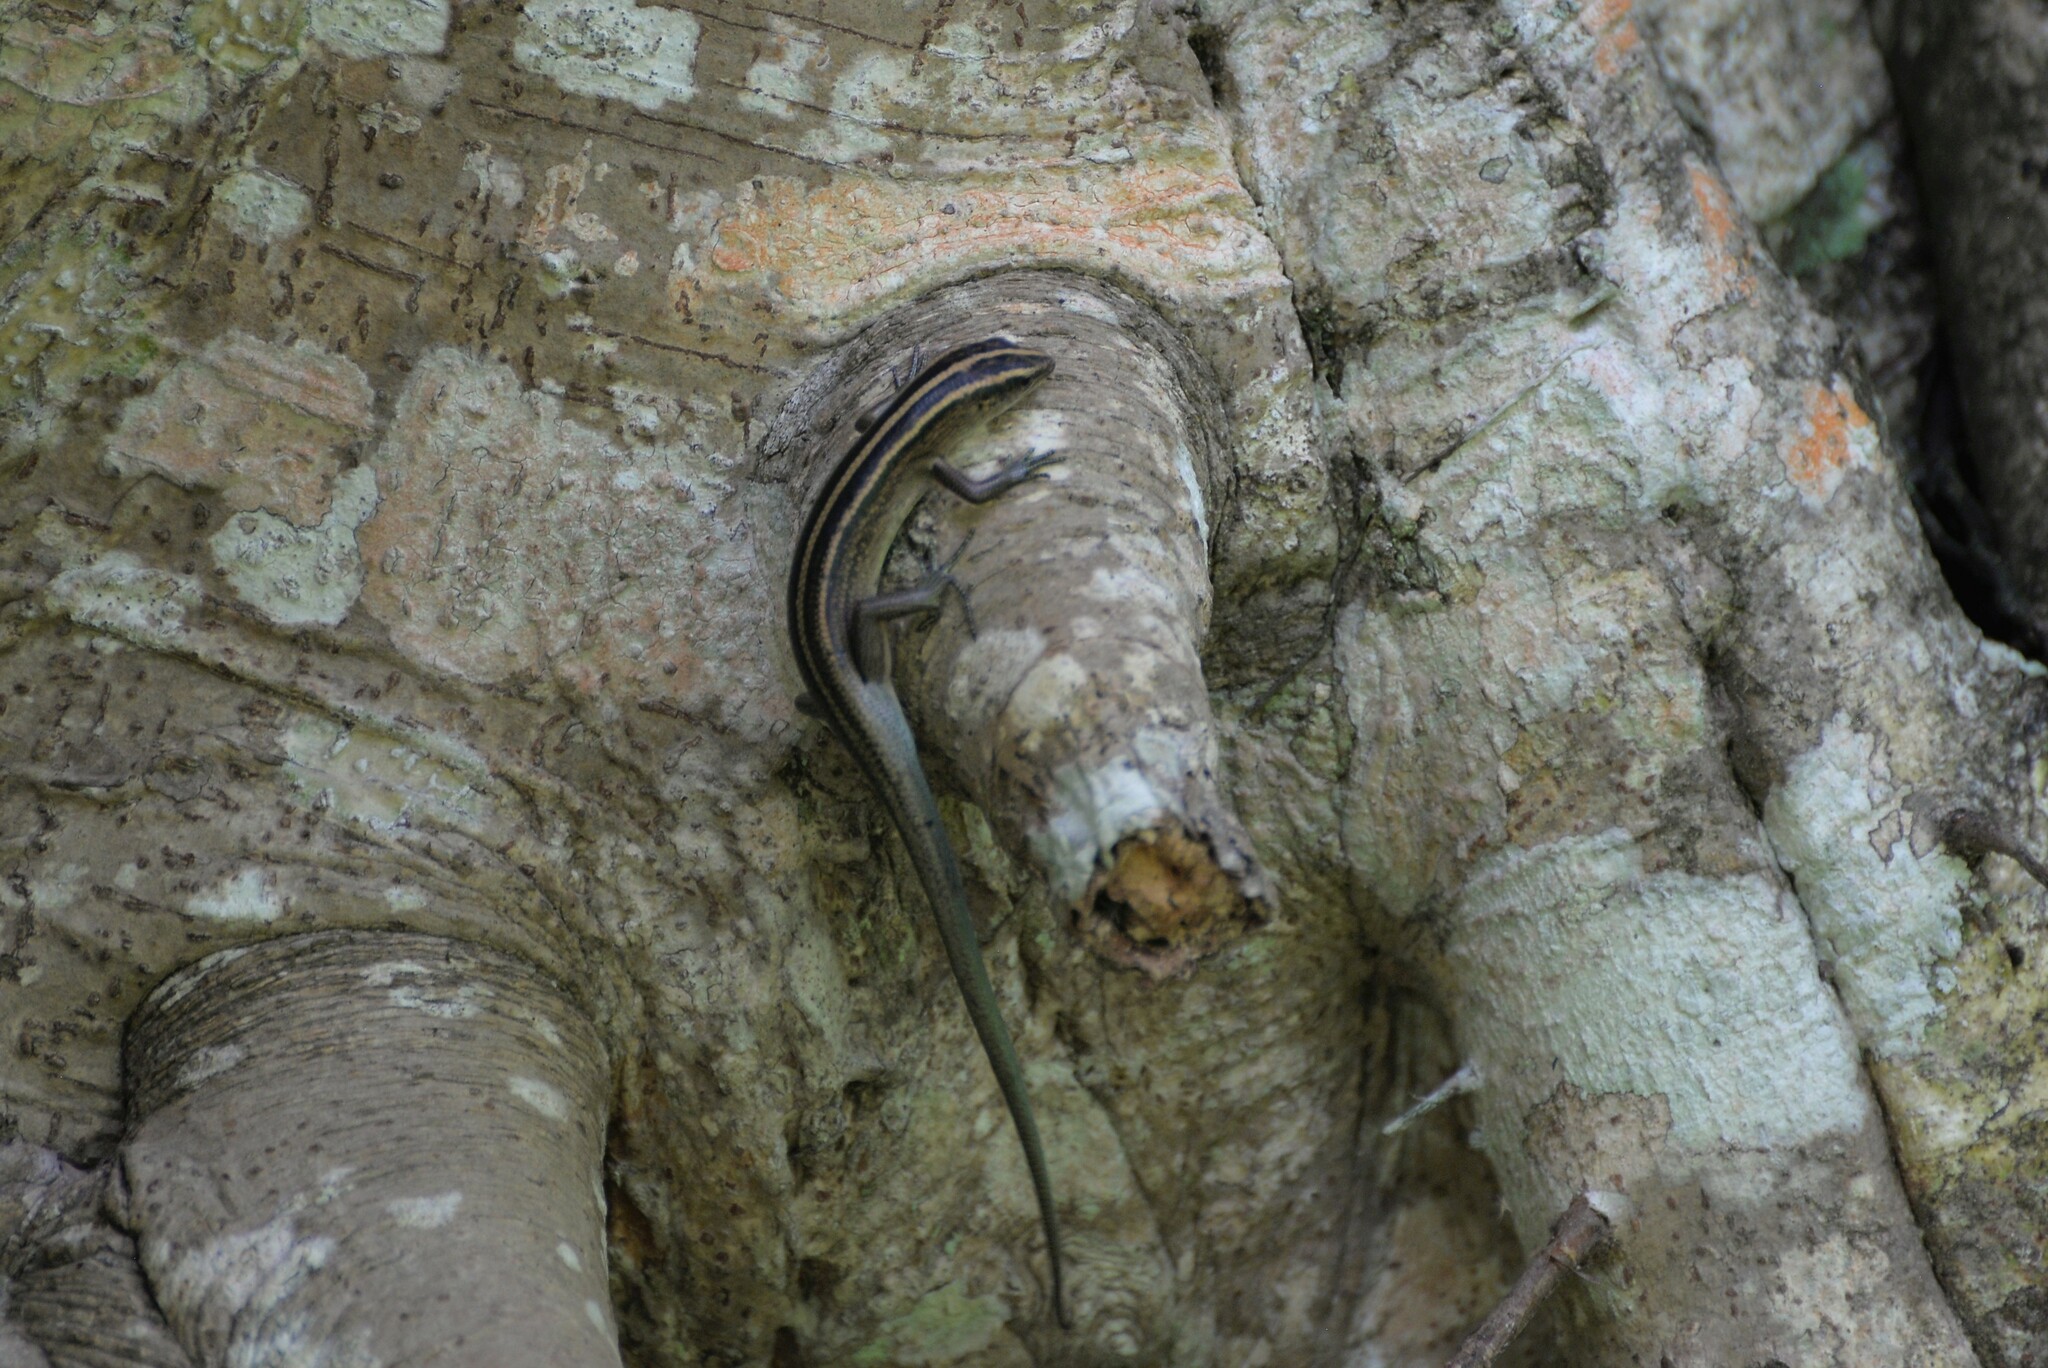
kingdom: Animalia
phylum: Chordata
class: Squamata
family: Scincidae
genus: Emoia
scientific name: Emoia cyanura
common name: Copper-tailed skink
